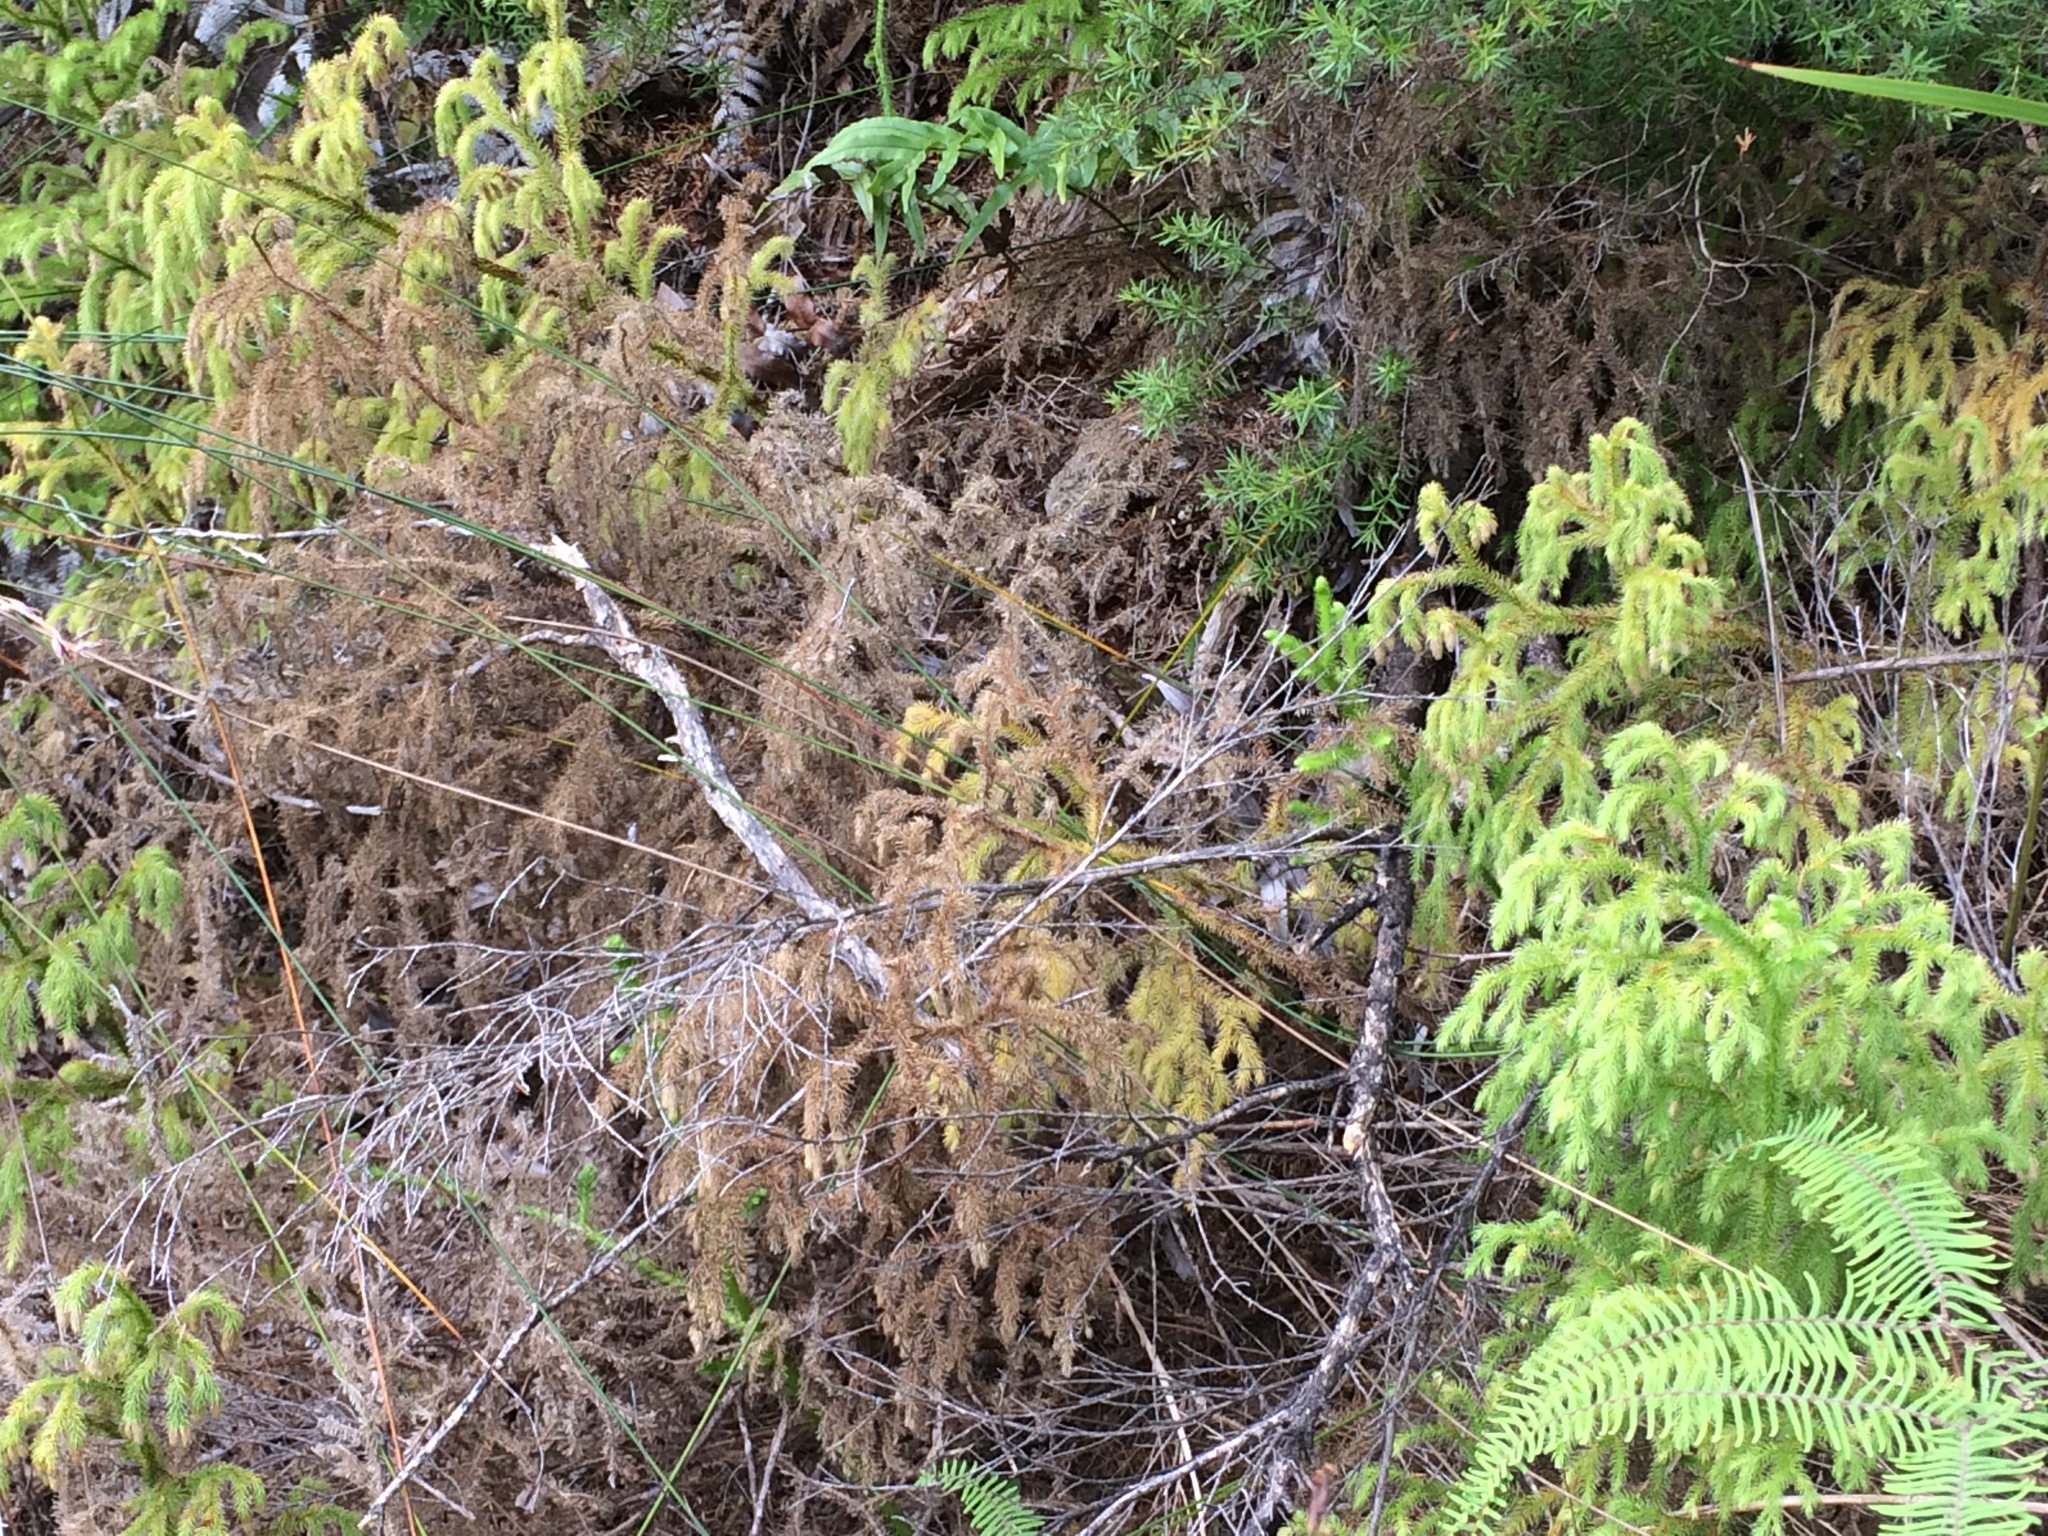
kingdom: Plantae
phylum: Tracheophyta
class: Lycopodiopsida
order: Lycopodiales
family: Lycopodiaceae
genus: Palhinhaea
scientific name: Palhinhaea cernua
